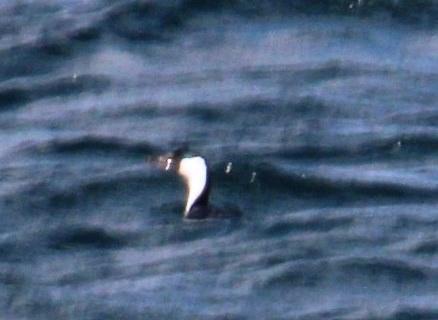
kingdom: Animalia
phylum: Chordata
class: Aves
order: Suliformes
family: Phalacrocoracidae
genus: Leucocarbo
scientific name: Leucocarbo atriceps
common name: Imperial shag
